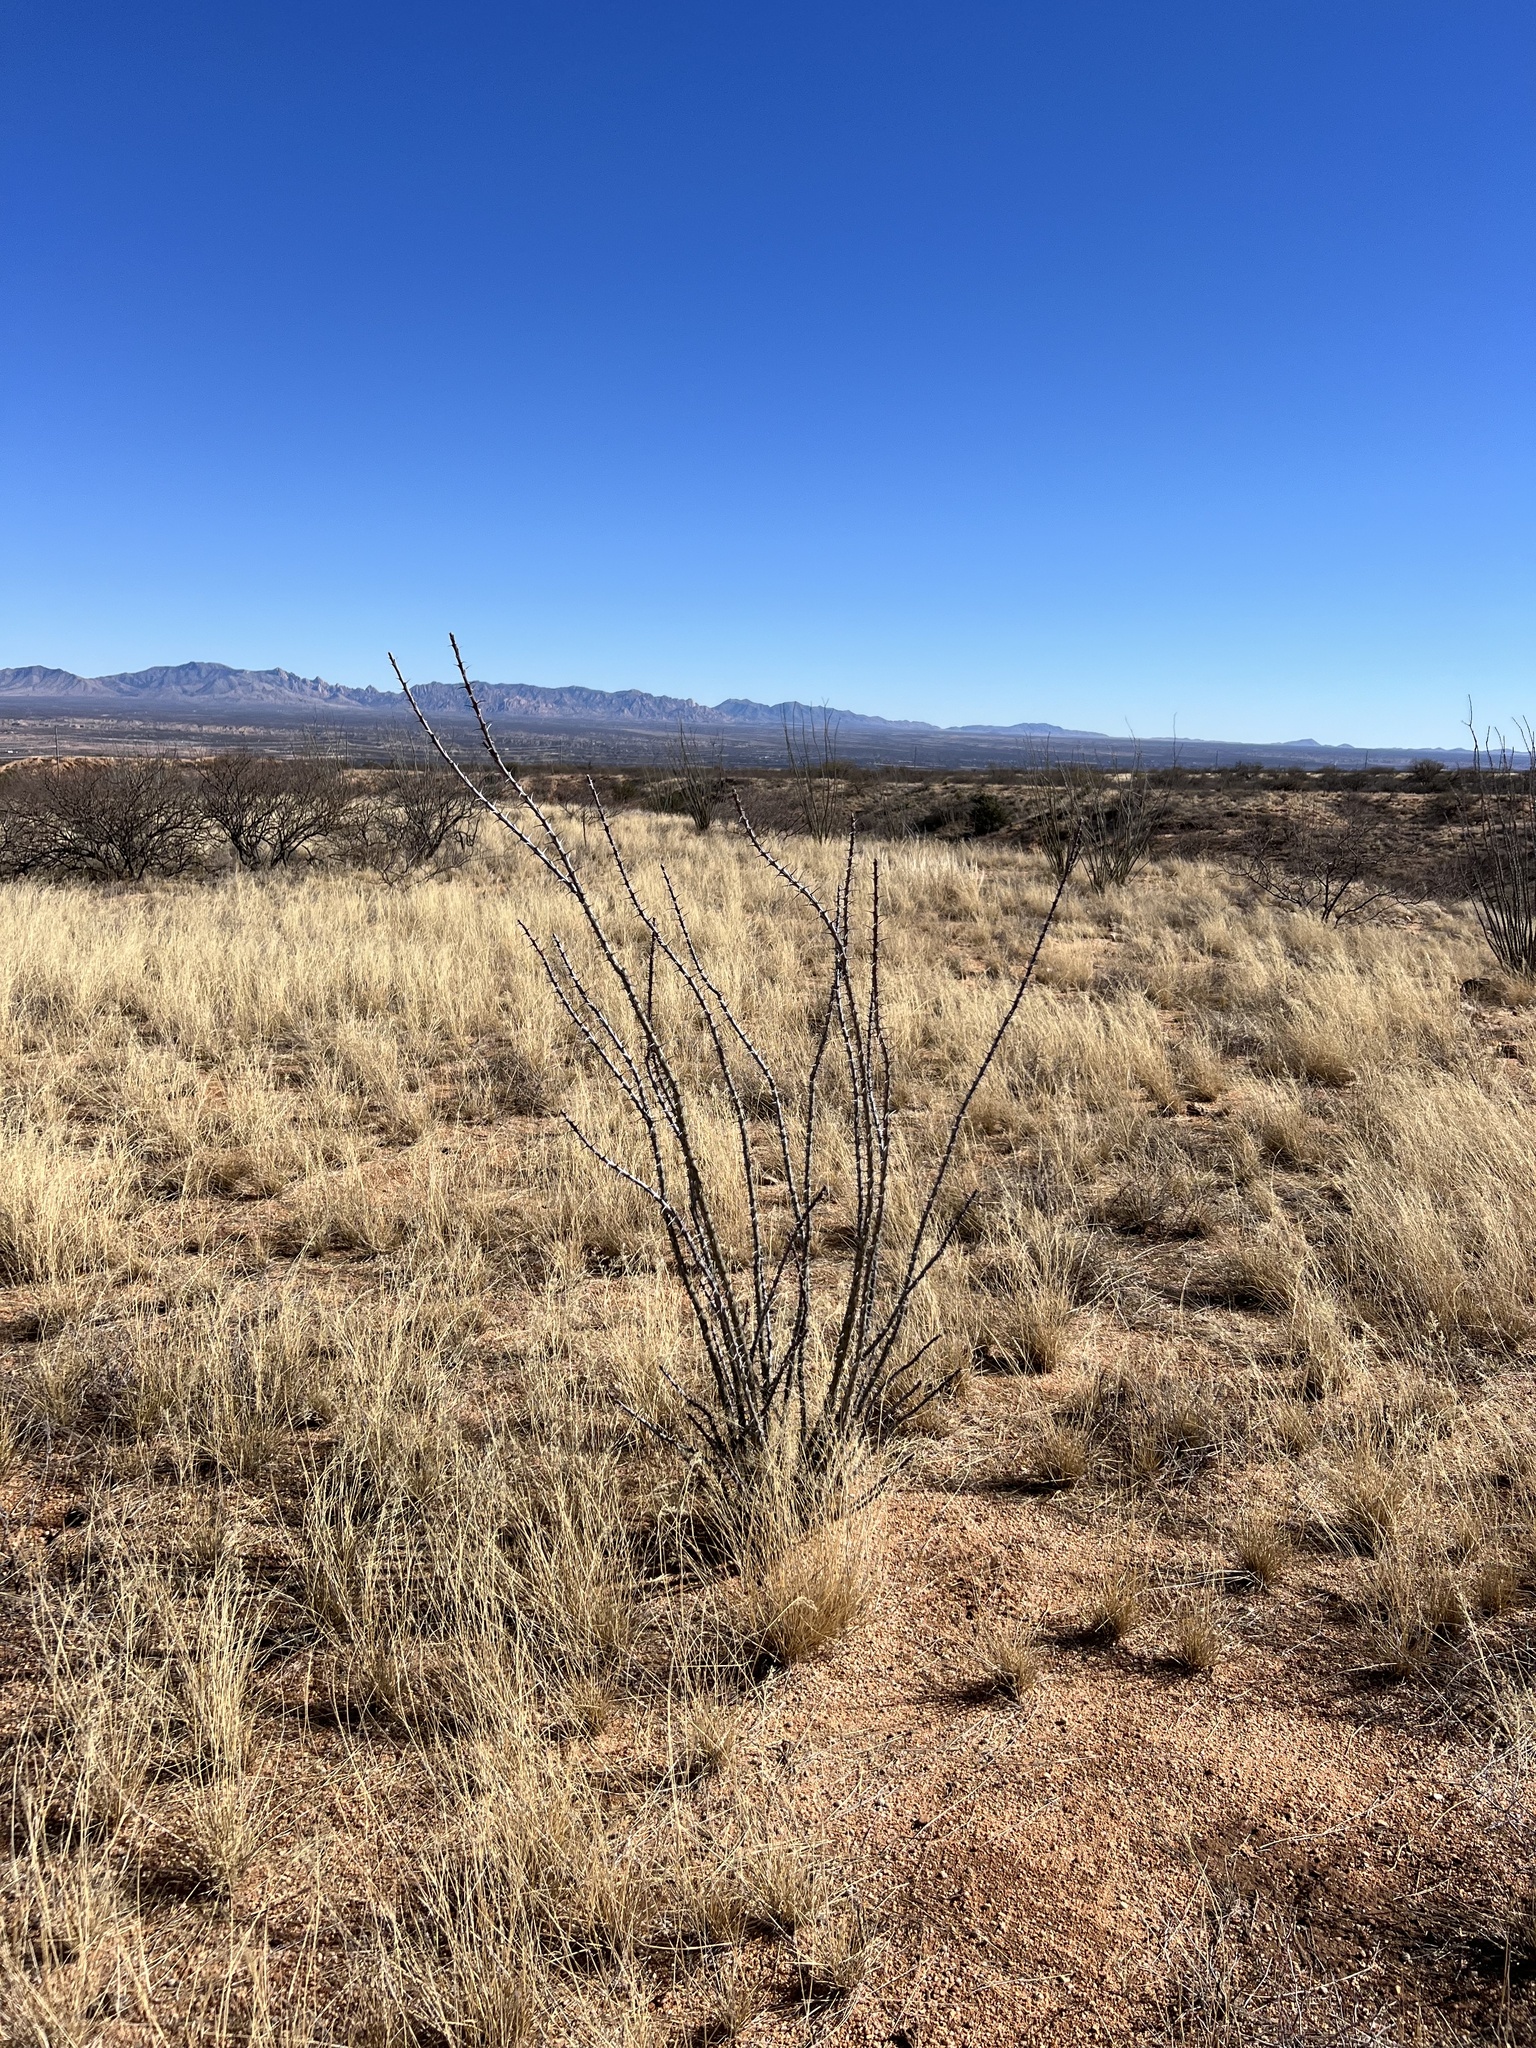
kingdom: Plantae
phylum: Tracheophyta
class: Magnoliopsida
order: Ericales
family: Fouquieriaceae
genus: Fouquieria
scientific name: Fouquieria splendens
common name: Vine-cactus
